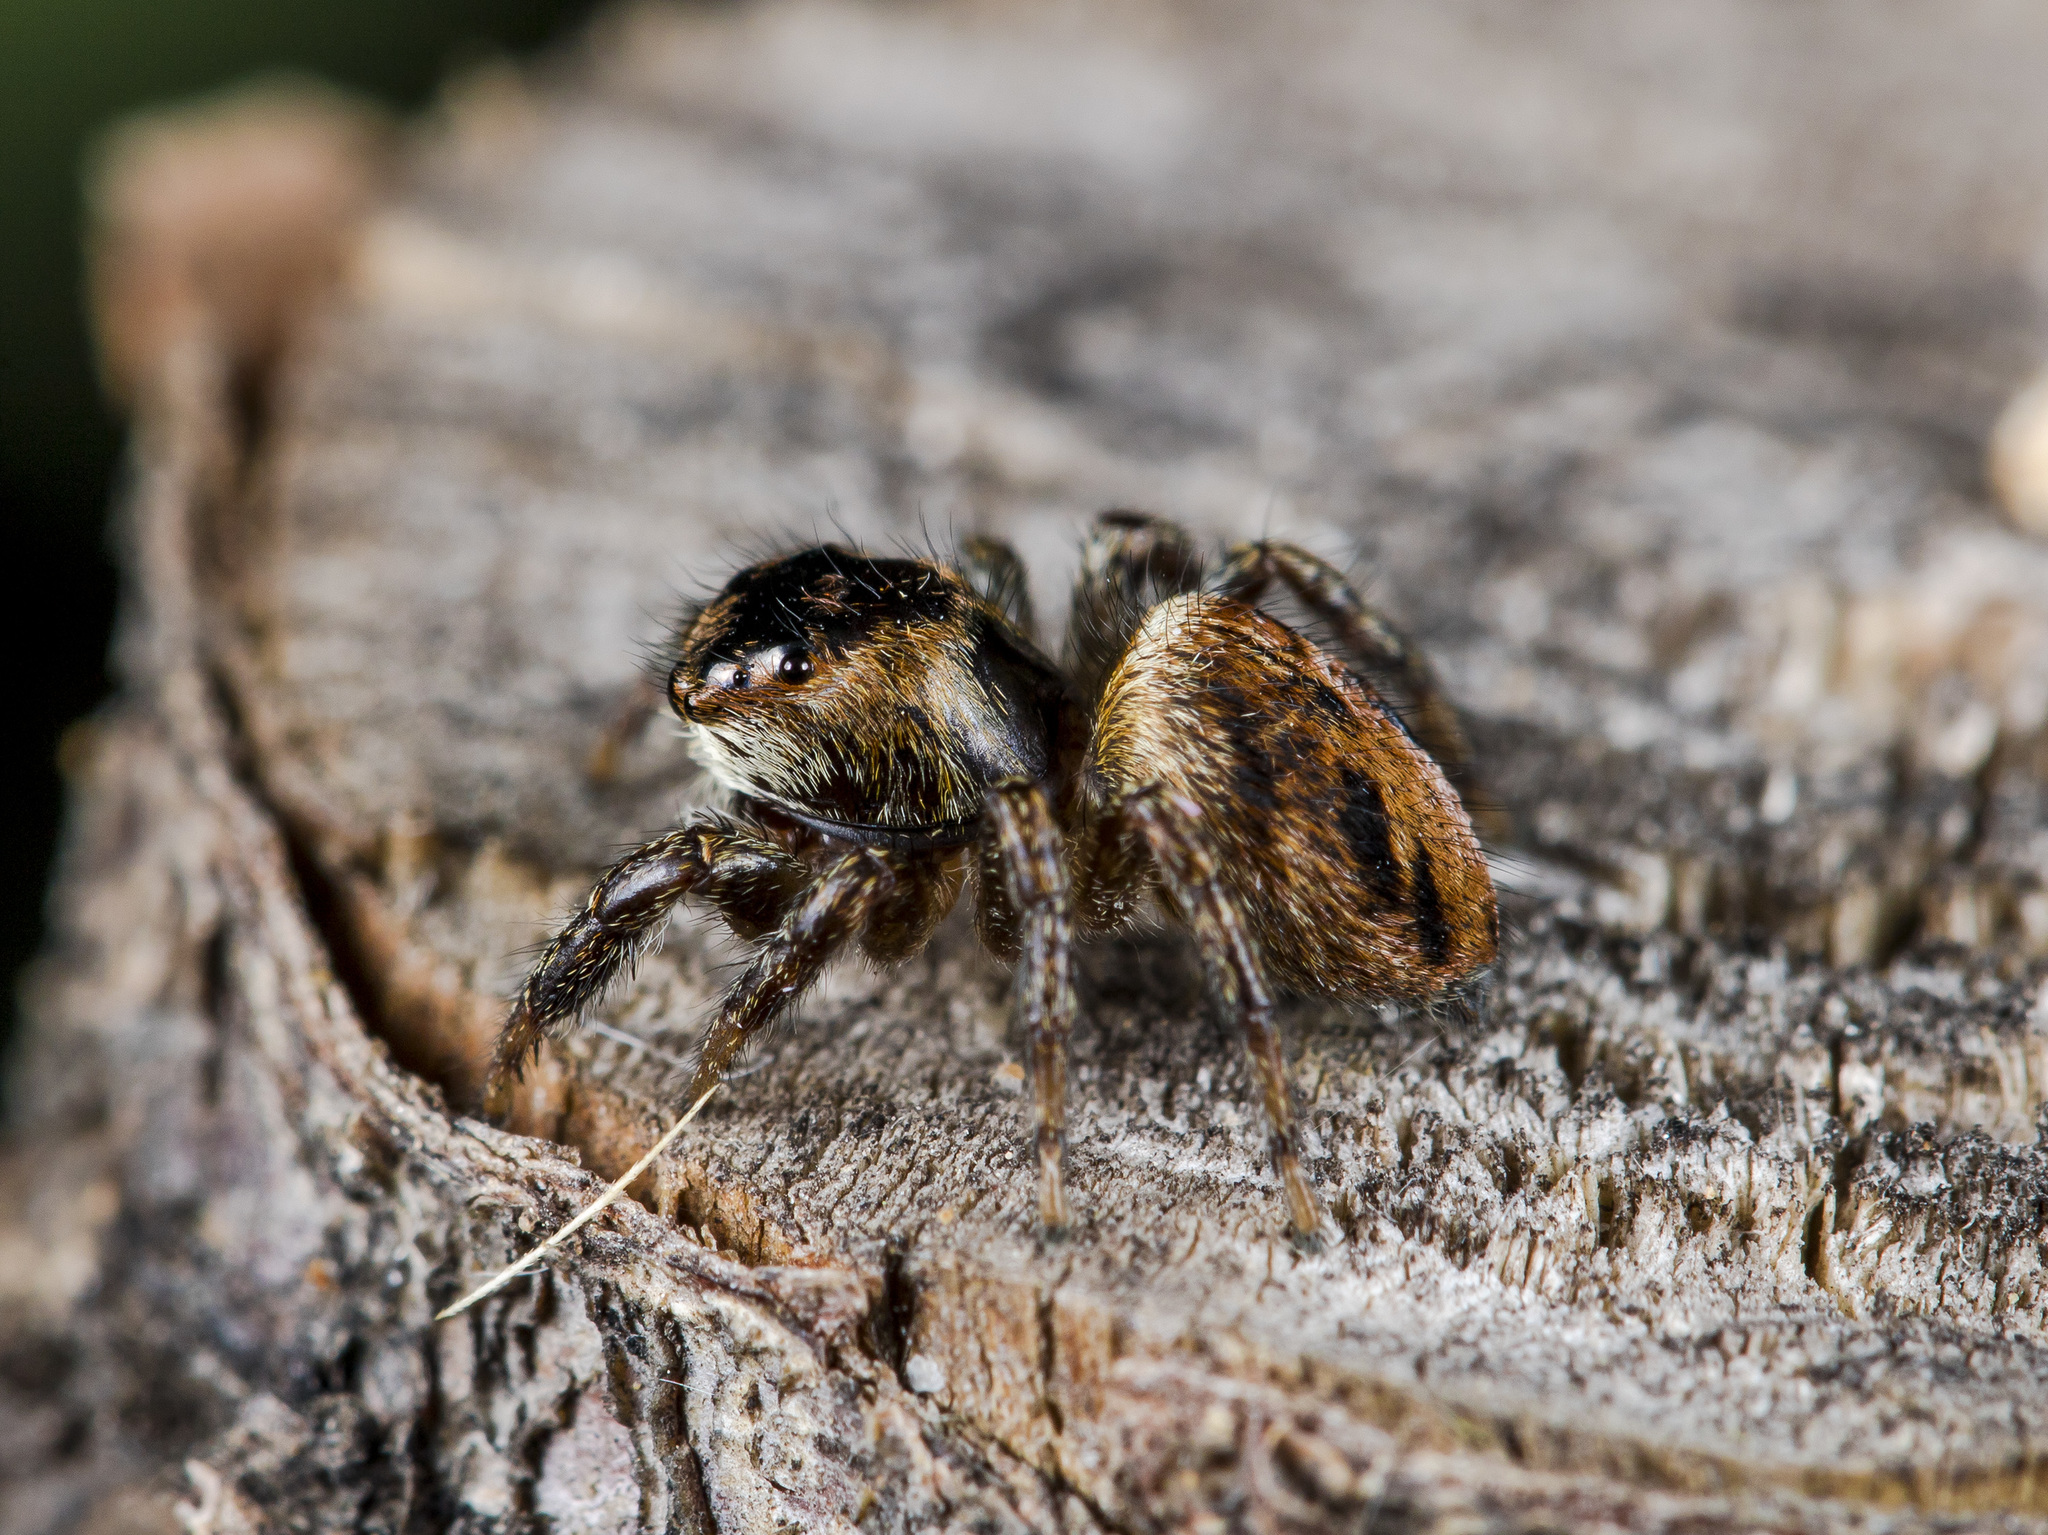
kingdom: Animalia
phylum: Arthropoda
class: Arachnida
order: Araneae
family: Salticidae
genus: Evarcha
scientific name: Evarcha arcuata
